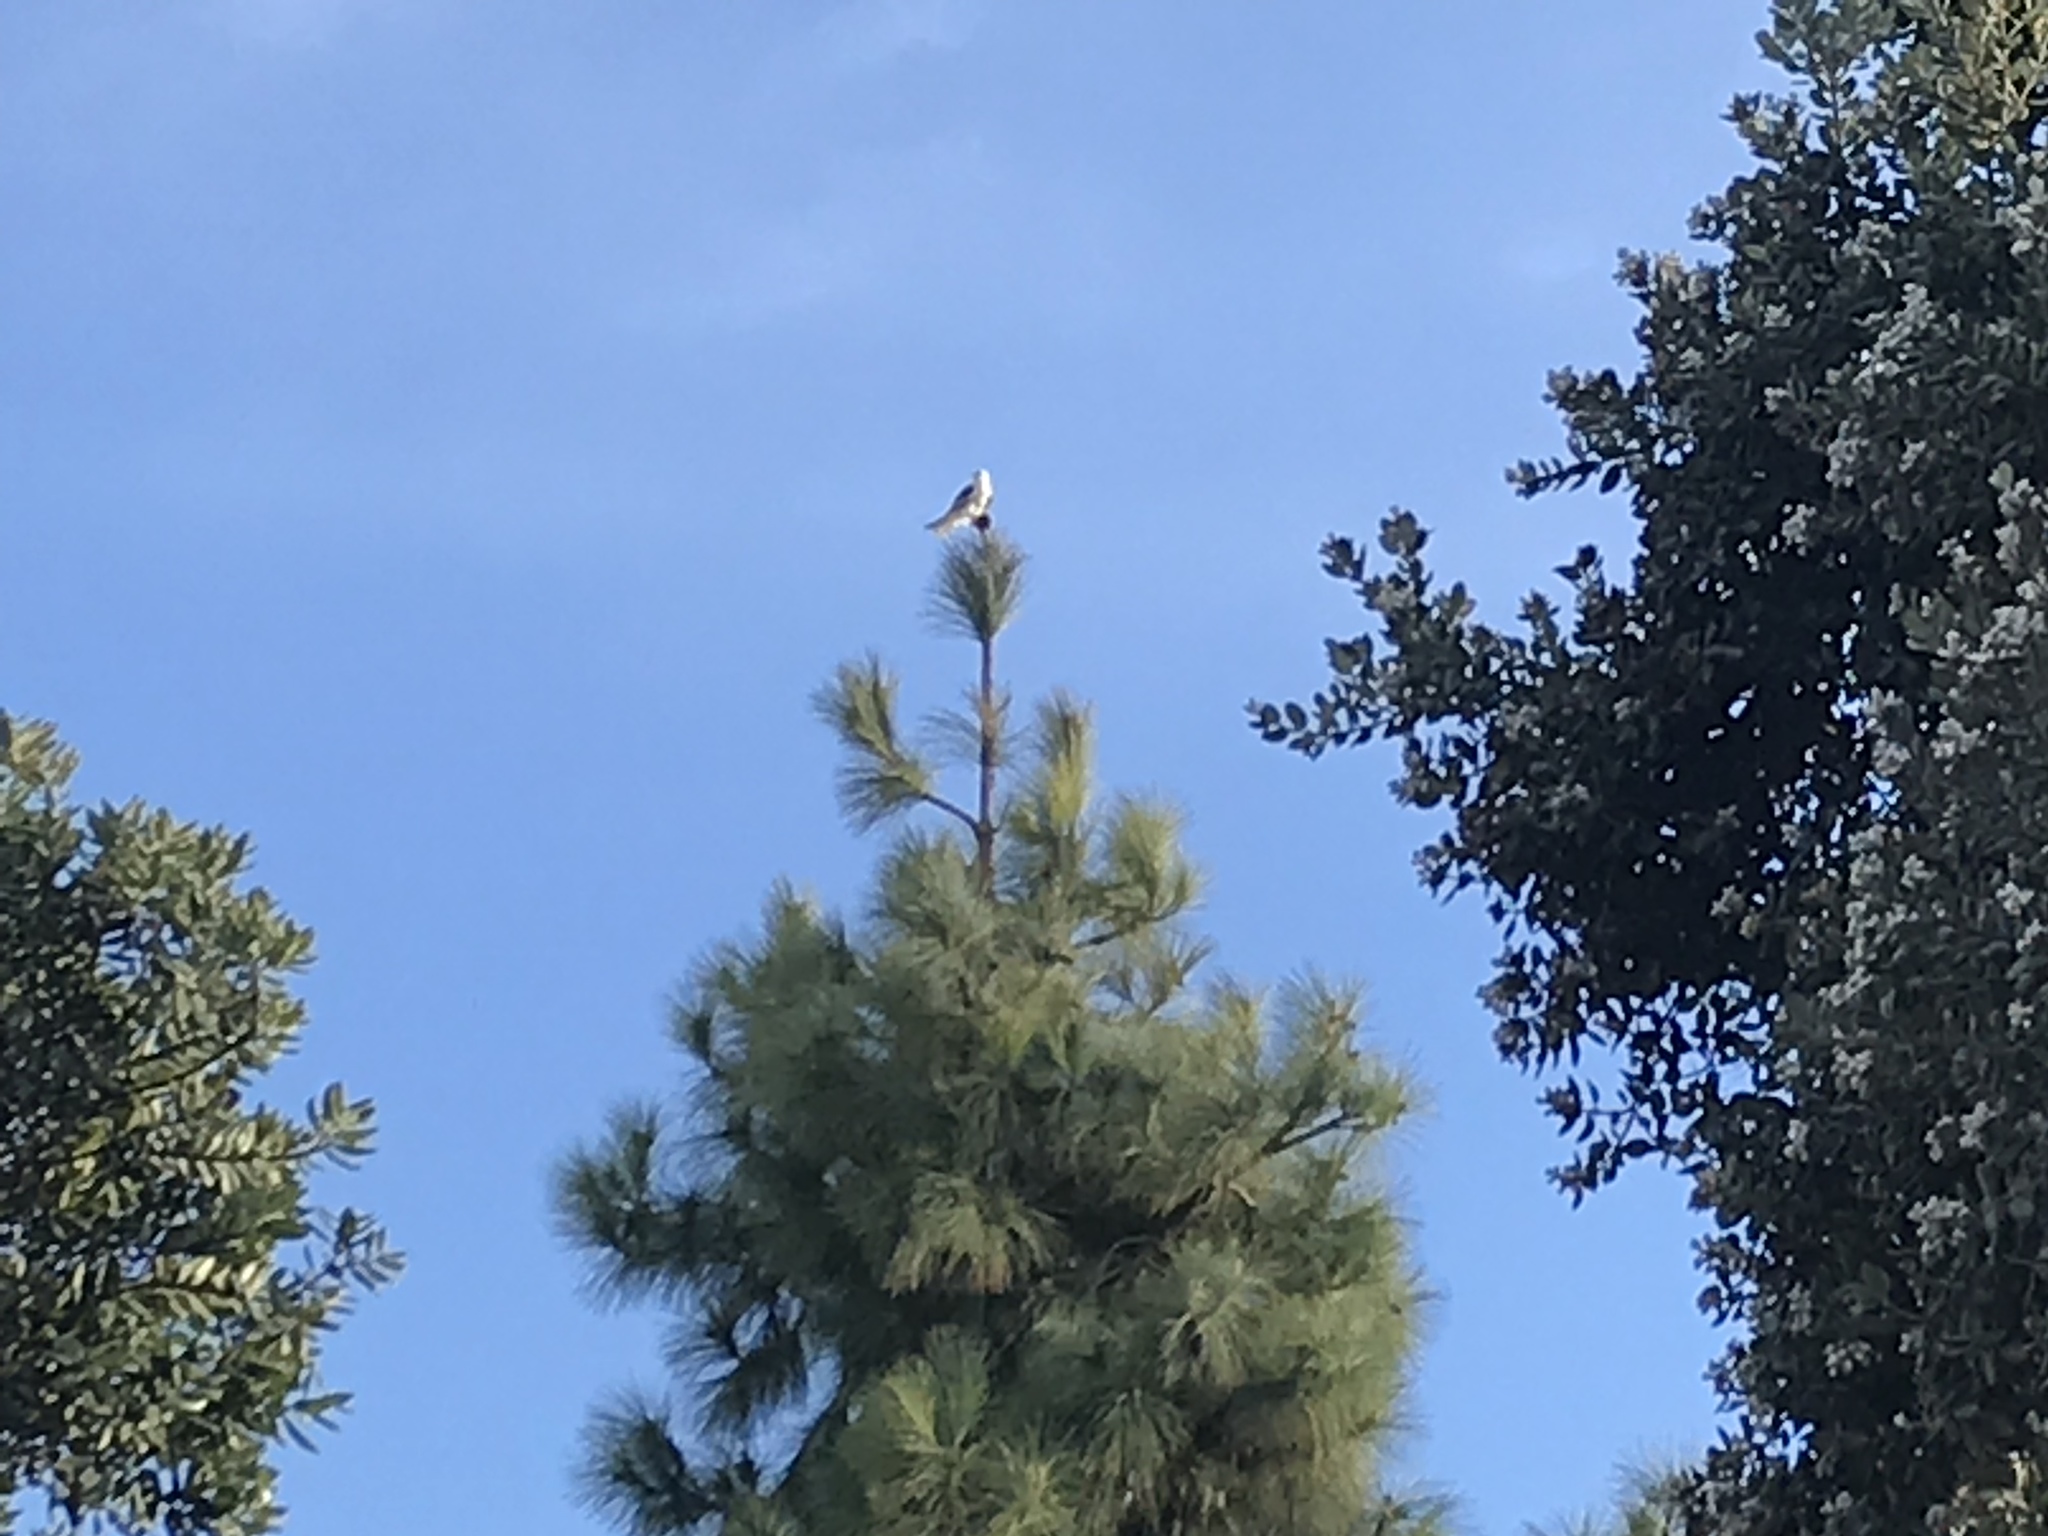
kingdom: Animalia
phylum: Chordata
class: Aves
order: Accipitriformes
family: Accipitridae
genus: Elanus
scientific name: Elanus leucurus
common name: White-tailed kite
